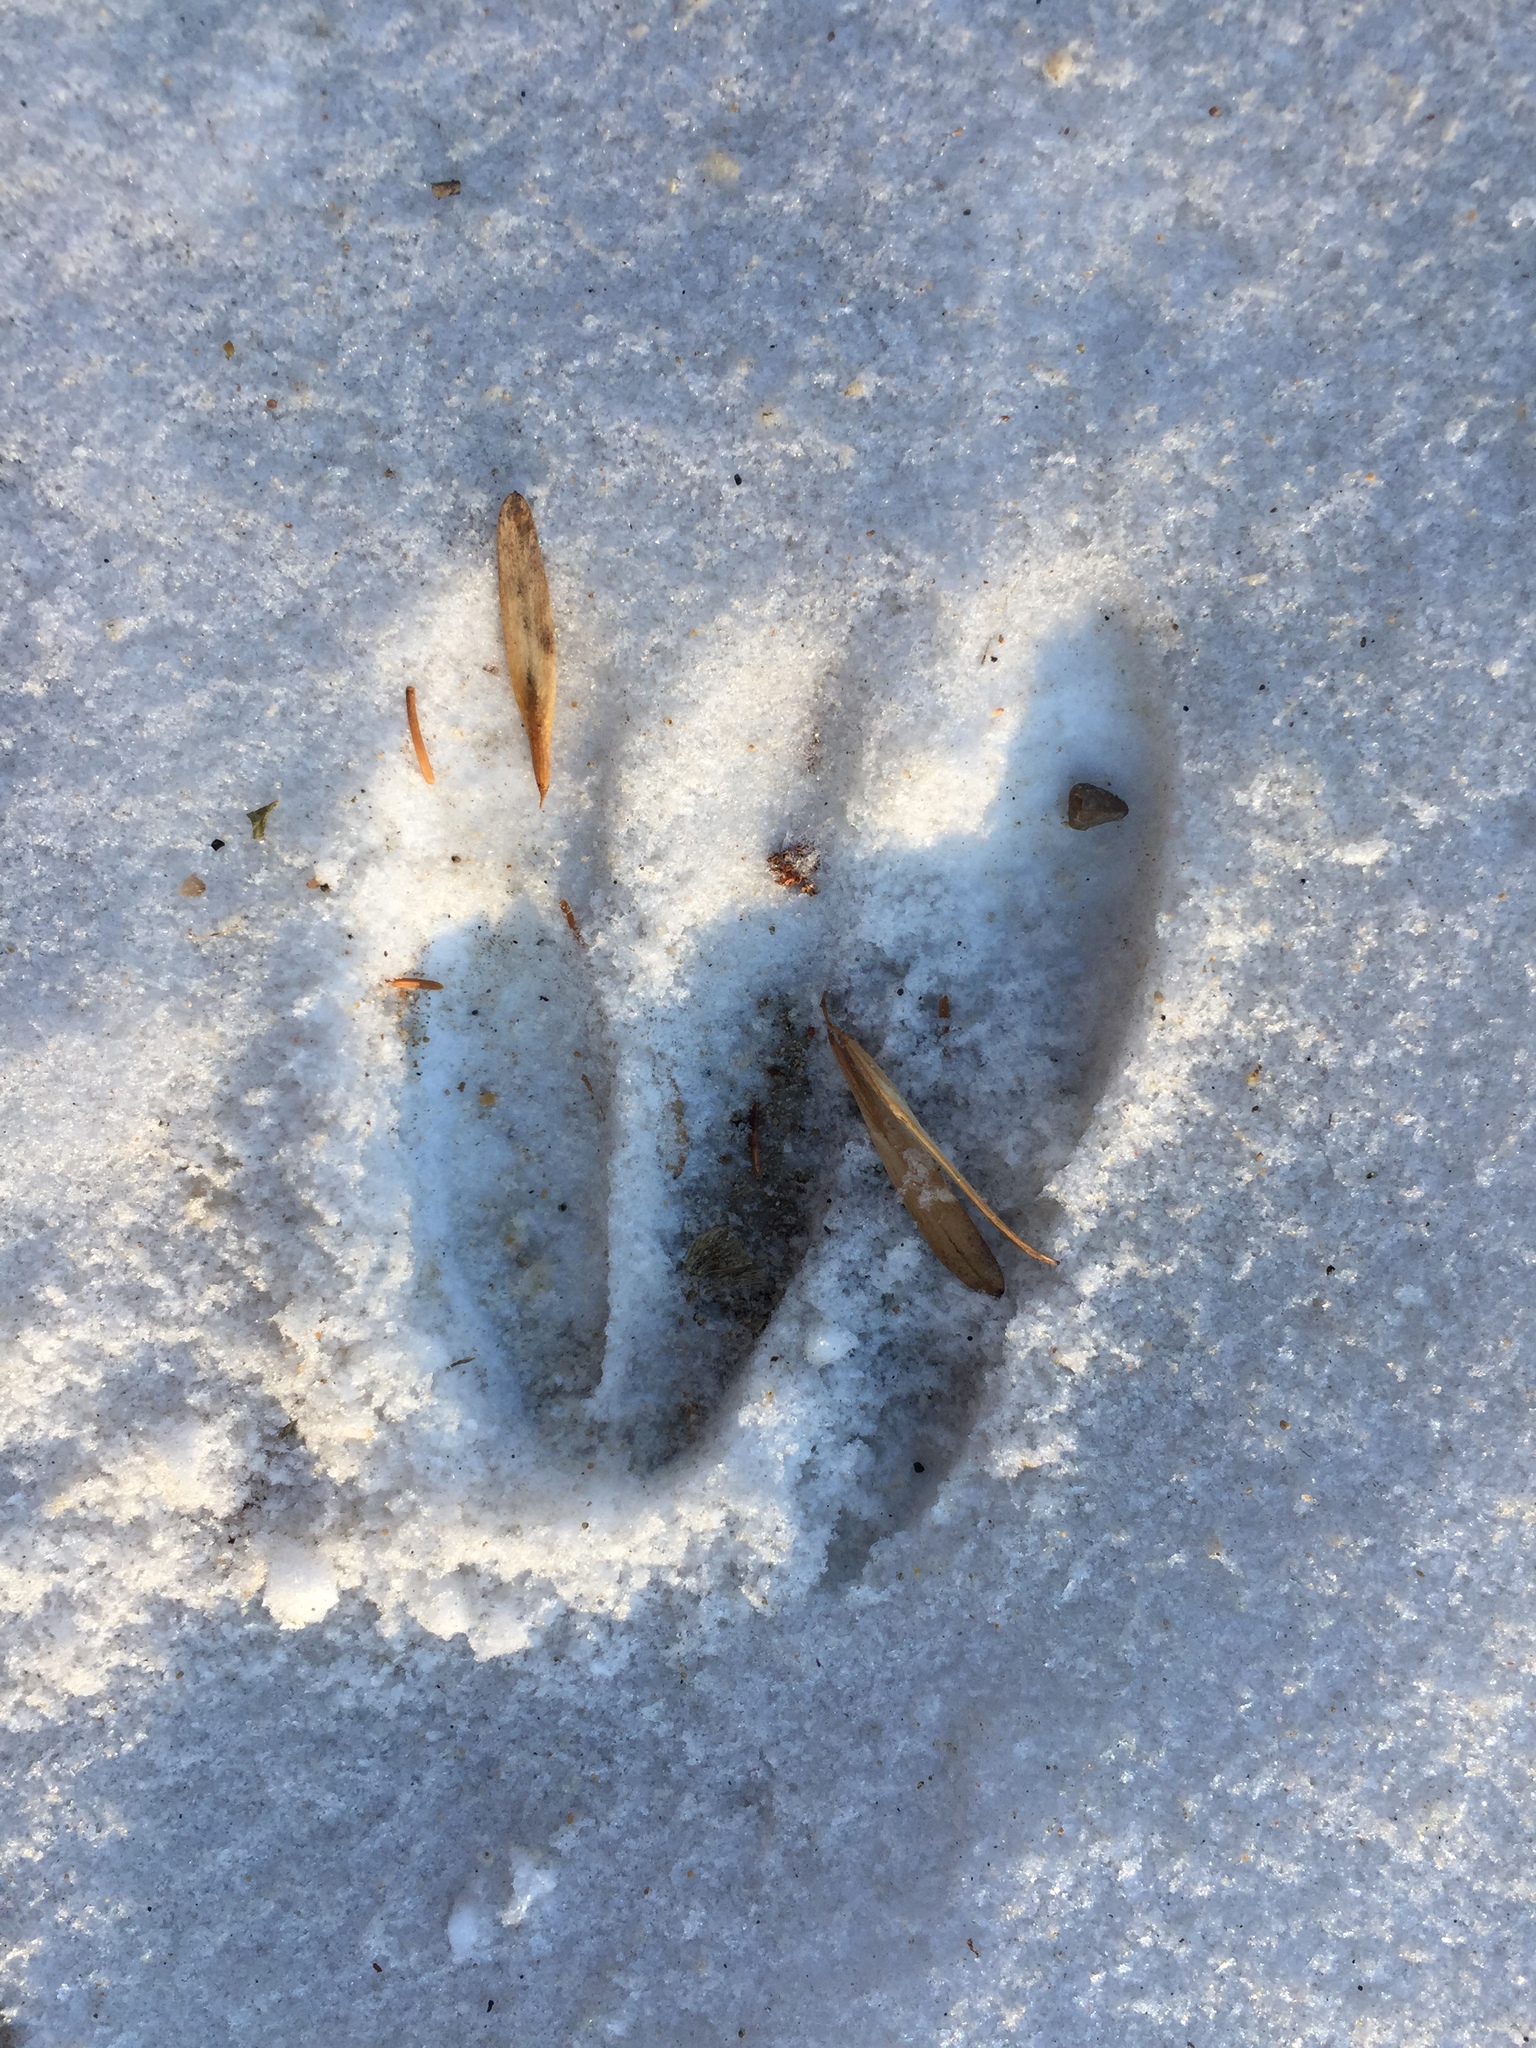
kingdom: Animalia
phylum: Chordata
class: Mammalia
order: Artiodactyla
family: Cervidae
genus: Odocoileus
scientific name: Odocoileus virginianus
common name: White-tailed deer
